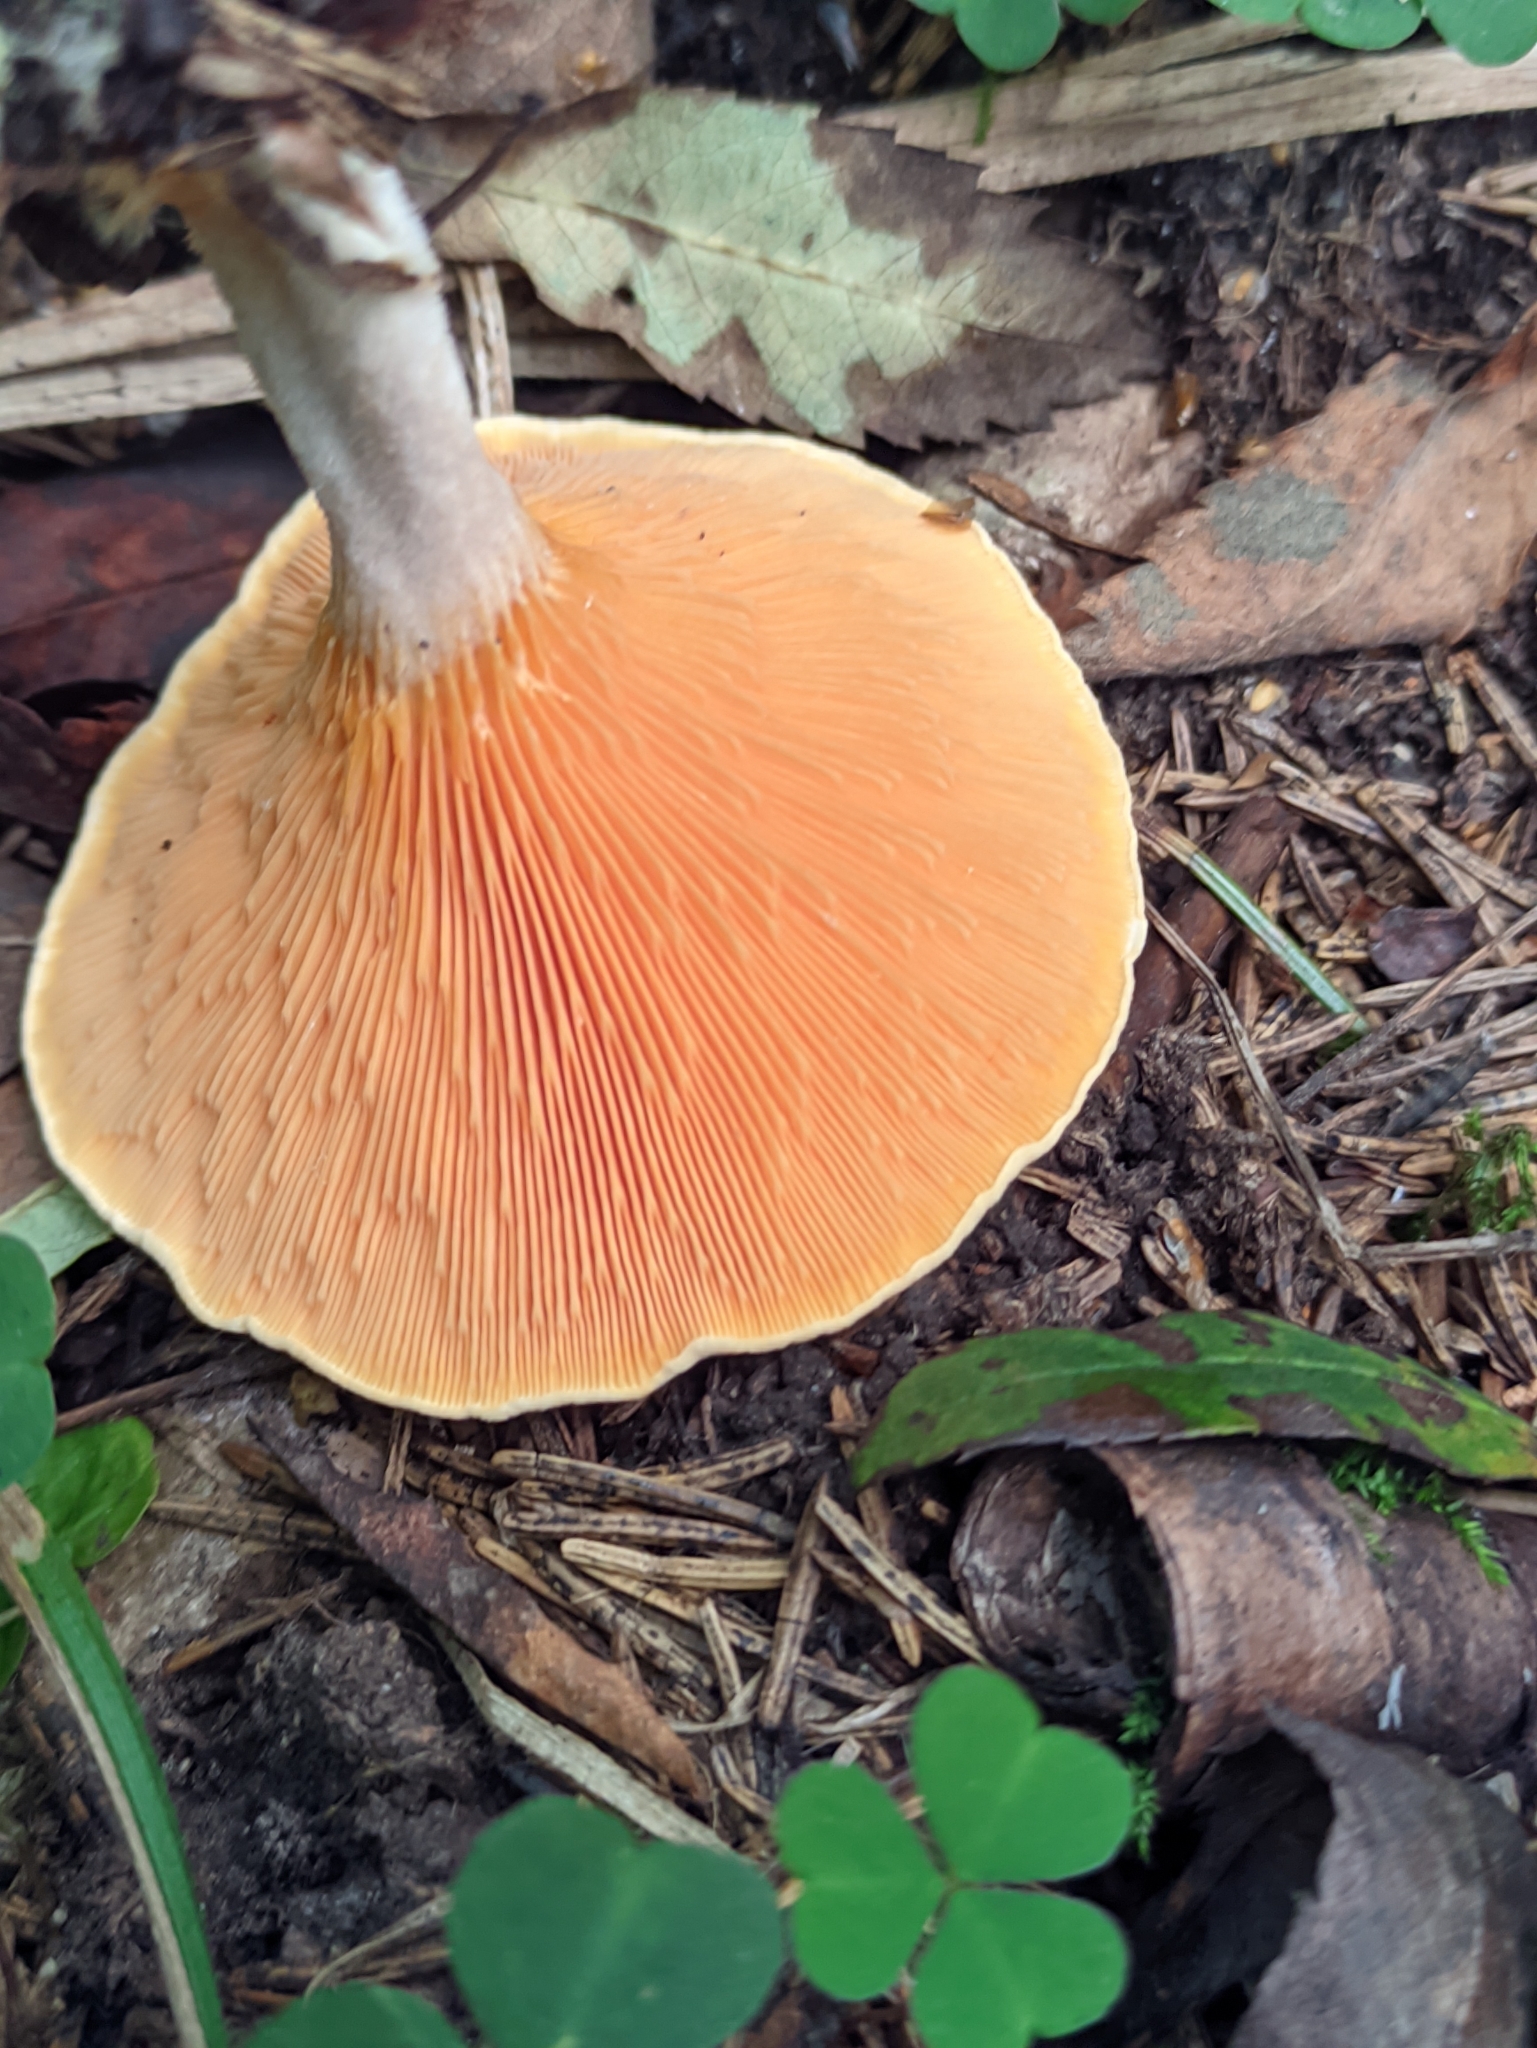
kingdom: Fungi
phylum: Basidiomycota
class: Agaricomycetes
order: Boletales
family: Hygrophoropsidaceae
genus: Hygrophoropsis
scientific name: Hygrophoropsis aurantiaca
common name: False chanterelle
